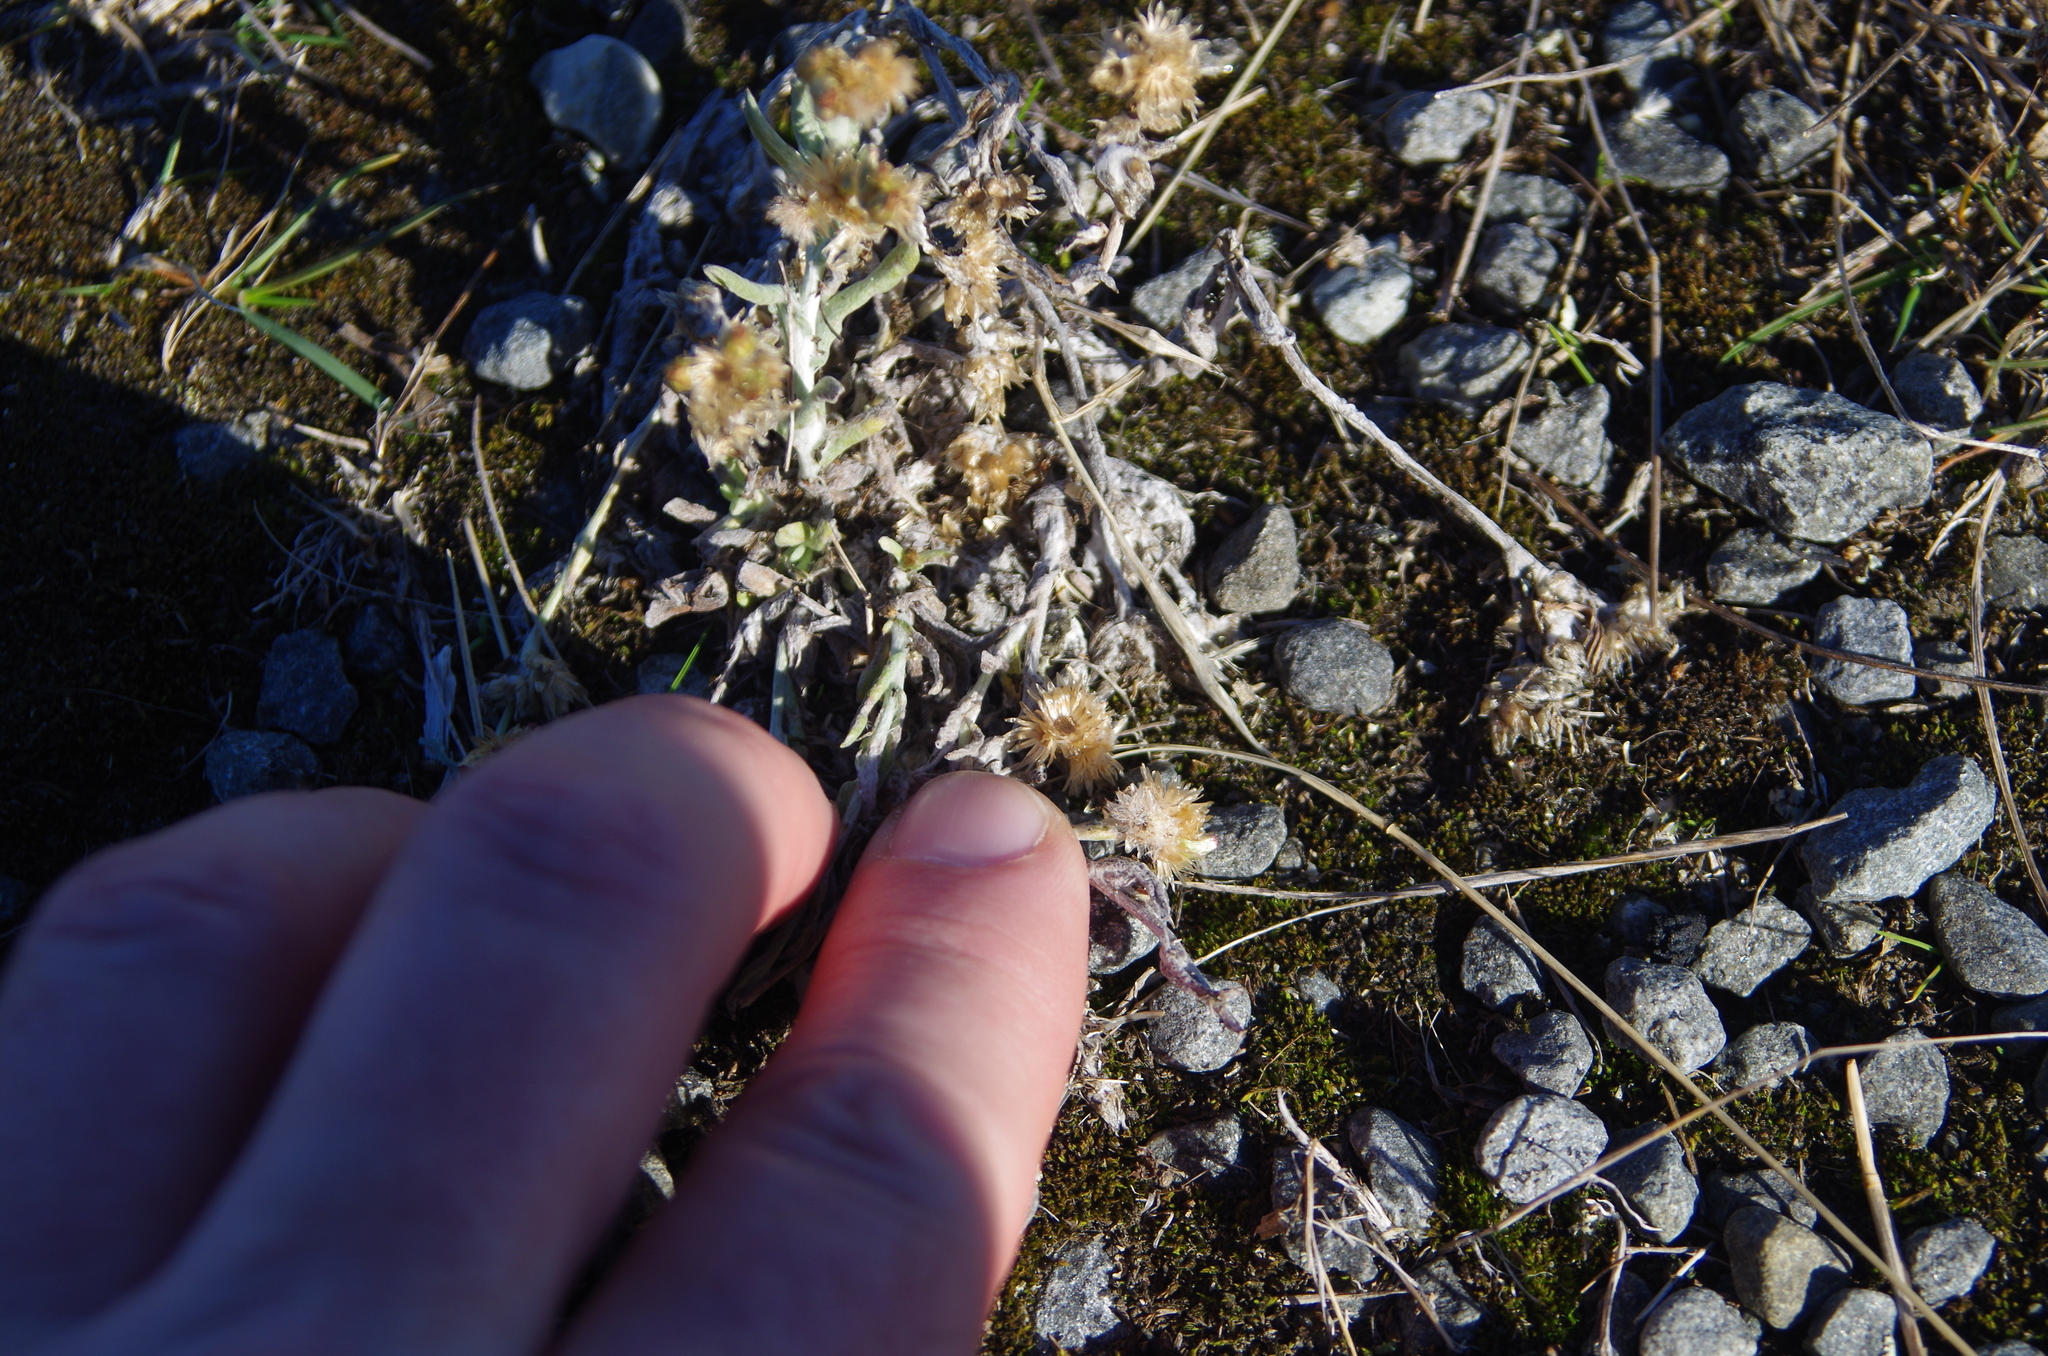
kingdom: Plantae
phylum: Tracheophyta
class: Magnoliopsida
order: Asterales
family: Asteraceae
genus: Helichrysum
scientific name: Helichrysum luteoalbum
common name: Daisy
